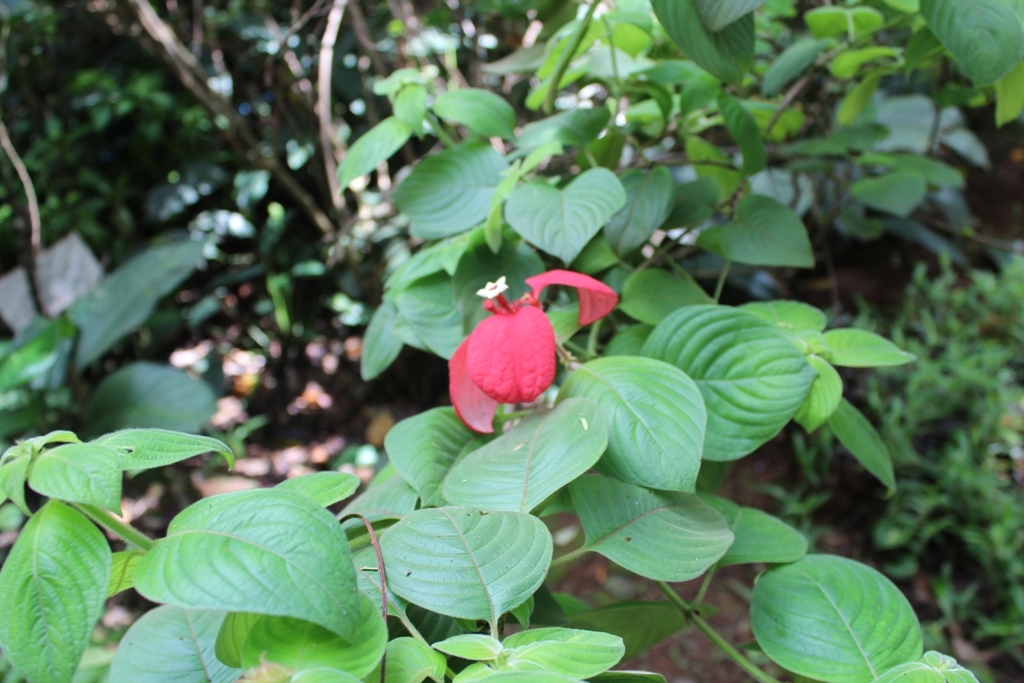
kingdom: Plantae
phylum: Tracheophyta
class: Magnoliopsida
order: Gentianales
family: Rubiaceae
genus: Mussaenda
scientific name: Mussaenda erythrophylla
